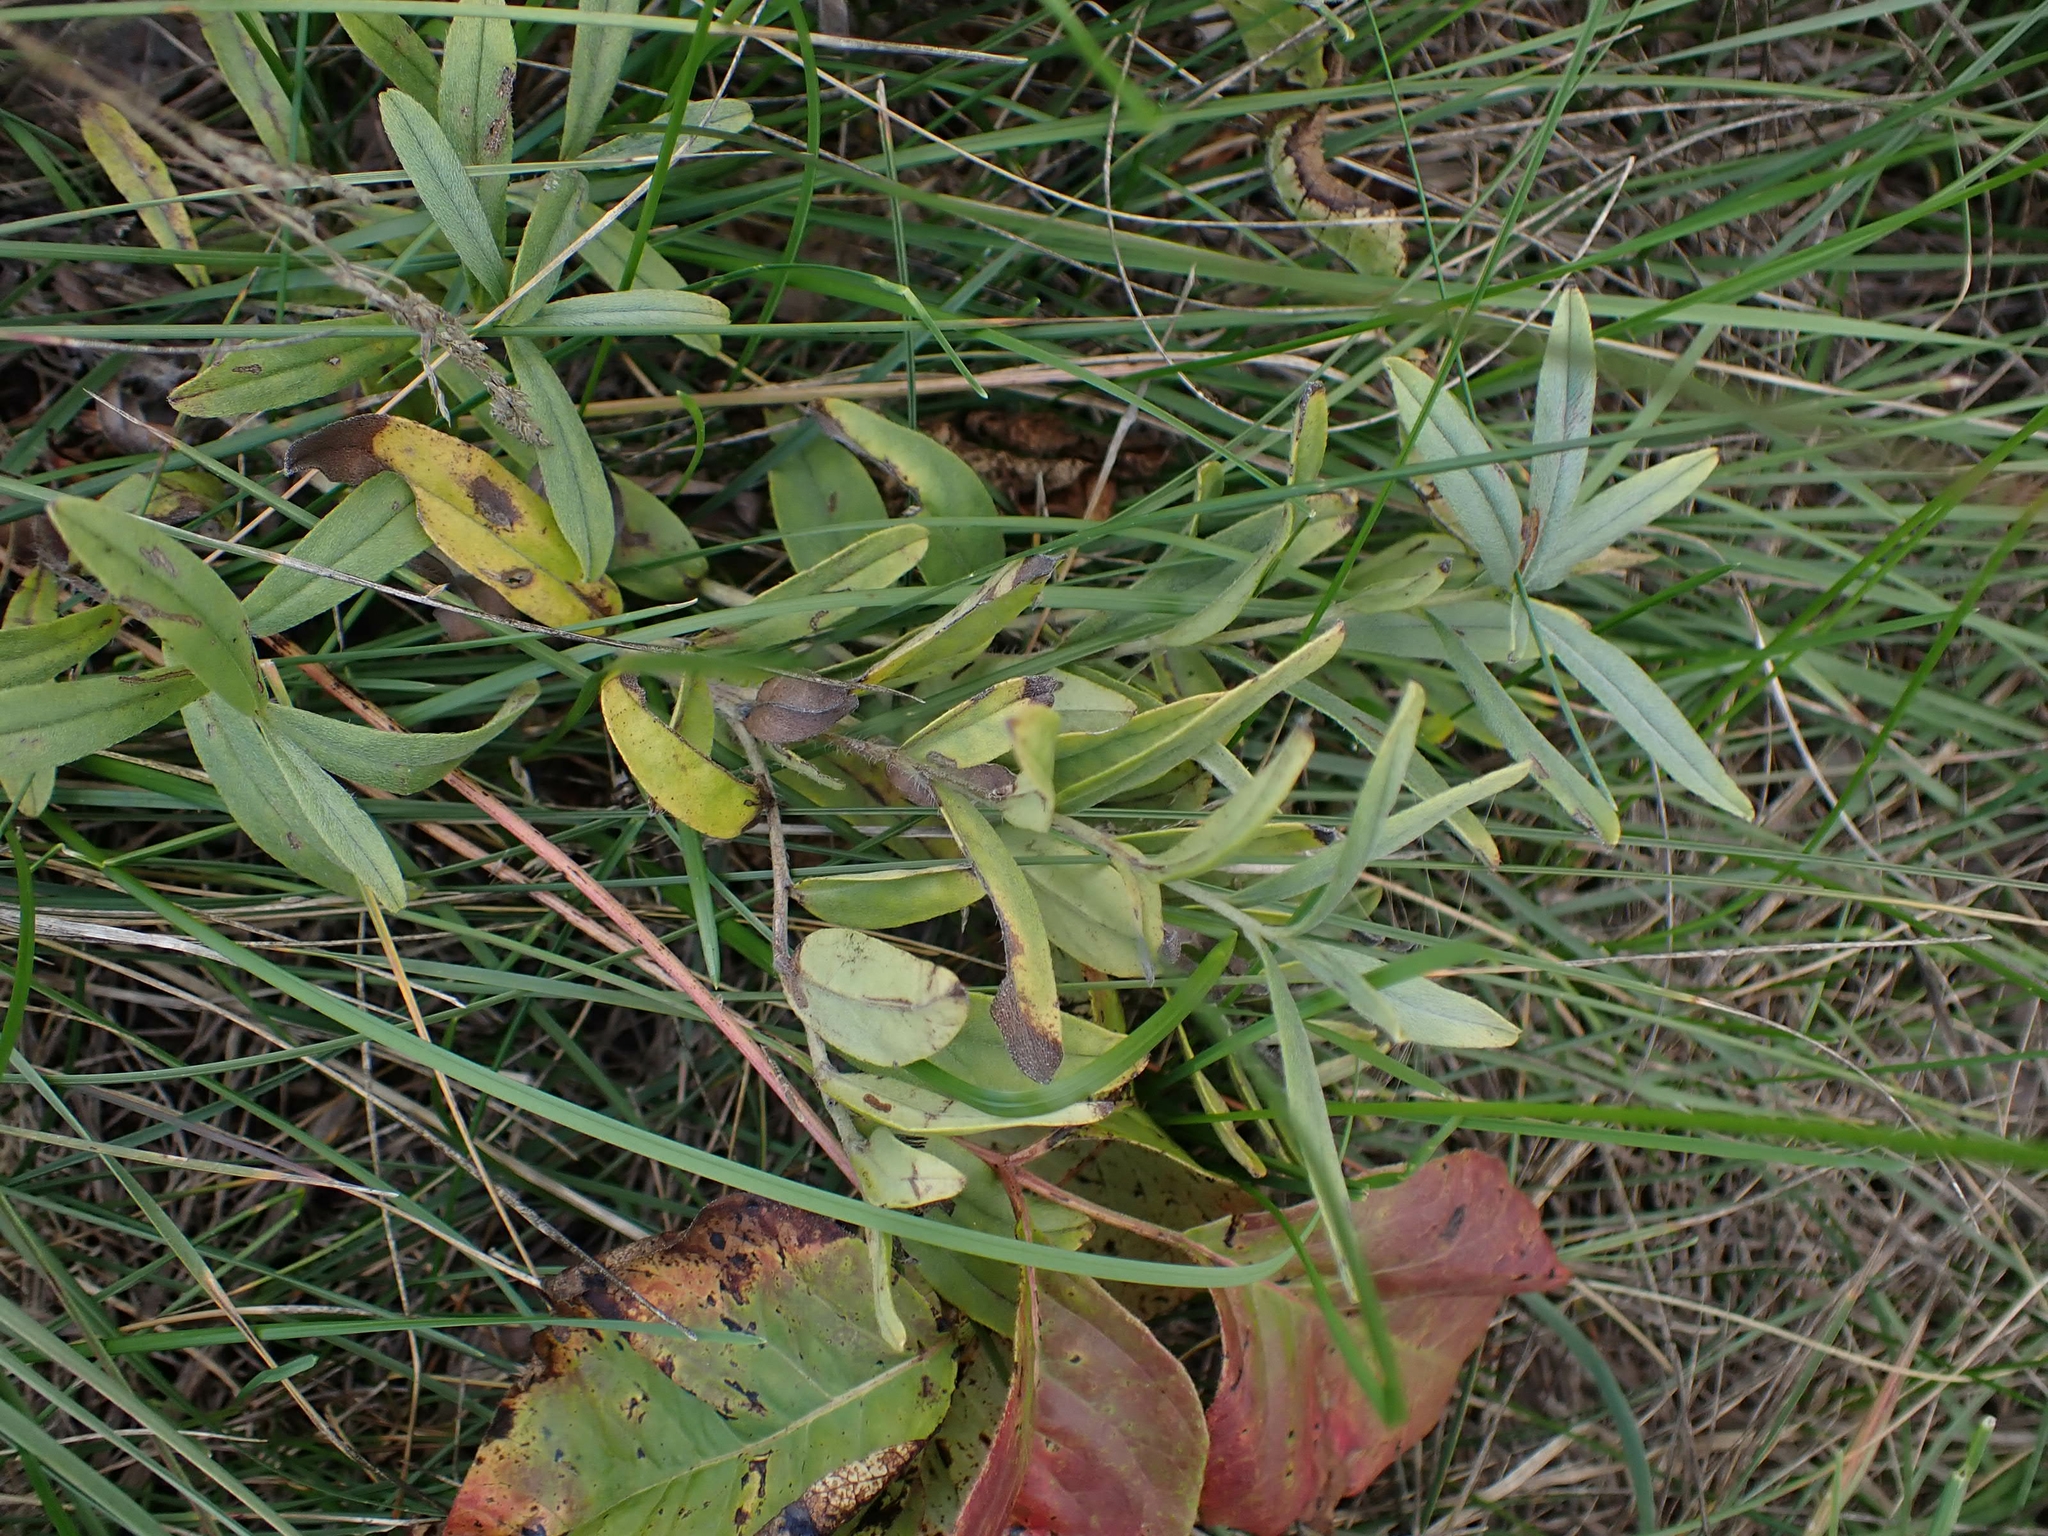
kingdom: Plantae
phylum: Tracheophyta
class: Magnoliopsida
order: Boraginales
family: Boraginaceae
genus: Lithospermum
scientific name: Lithospermum canescens
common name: Hoary puccoon
